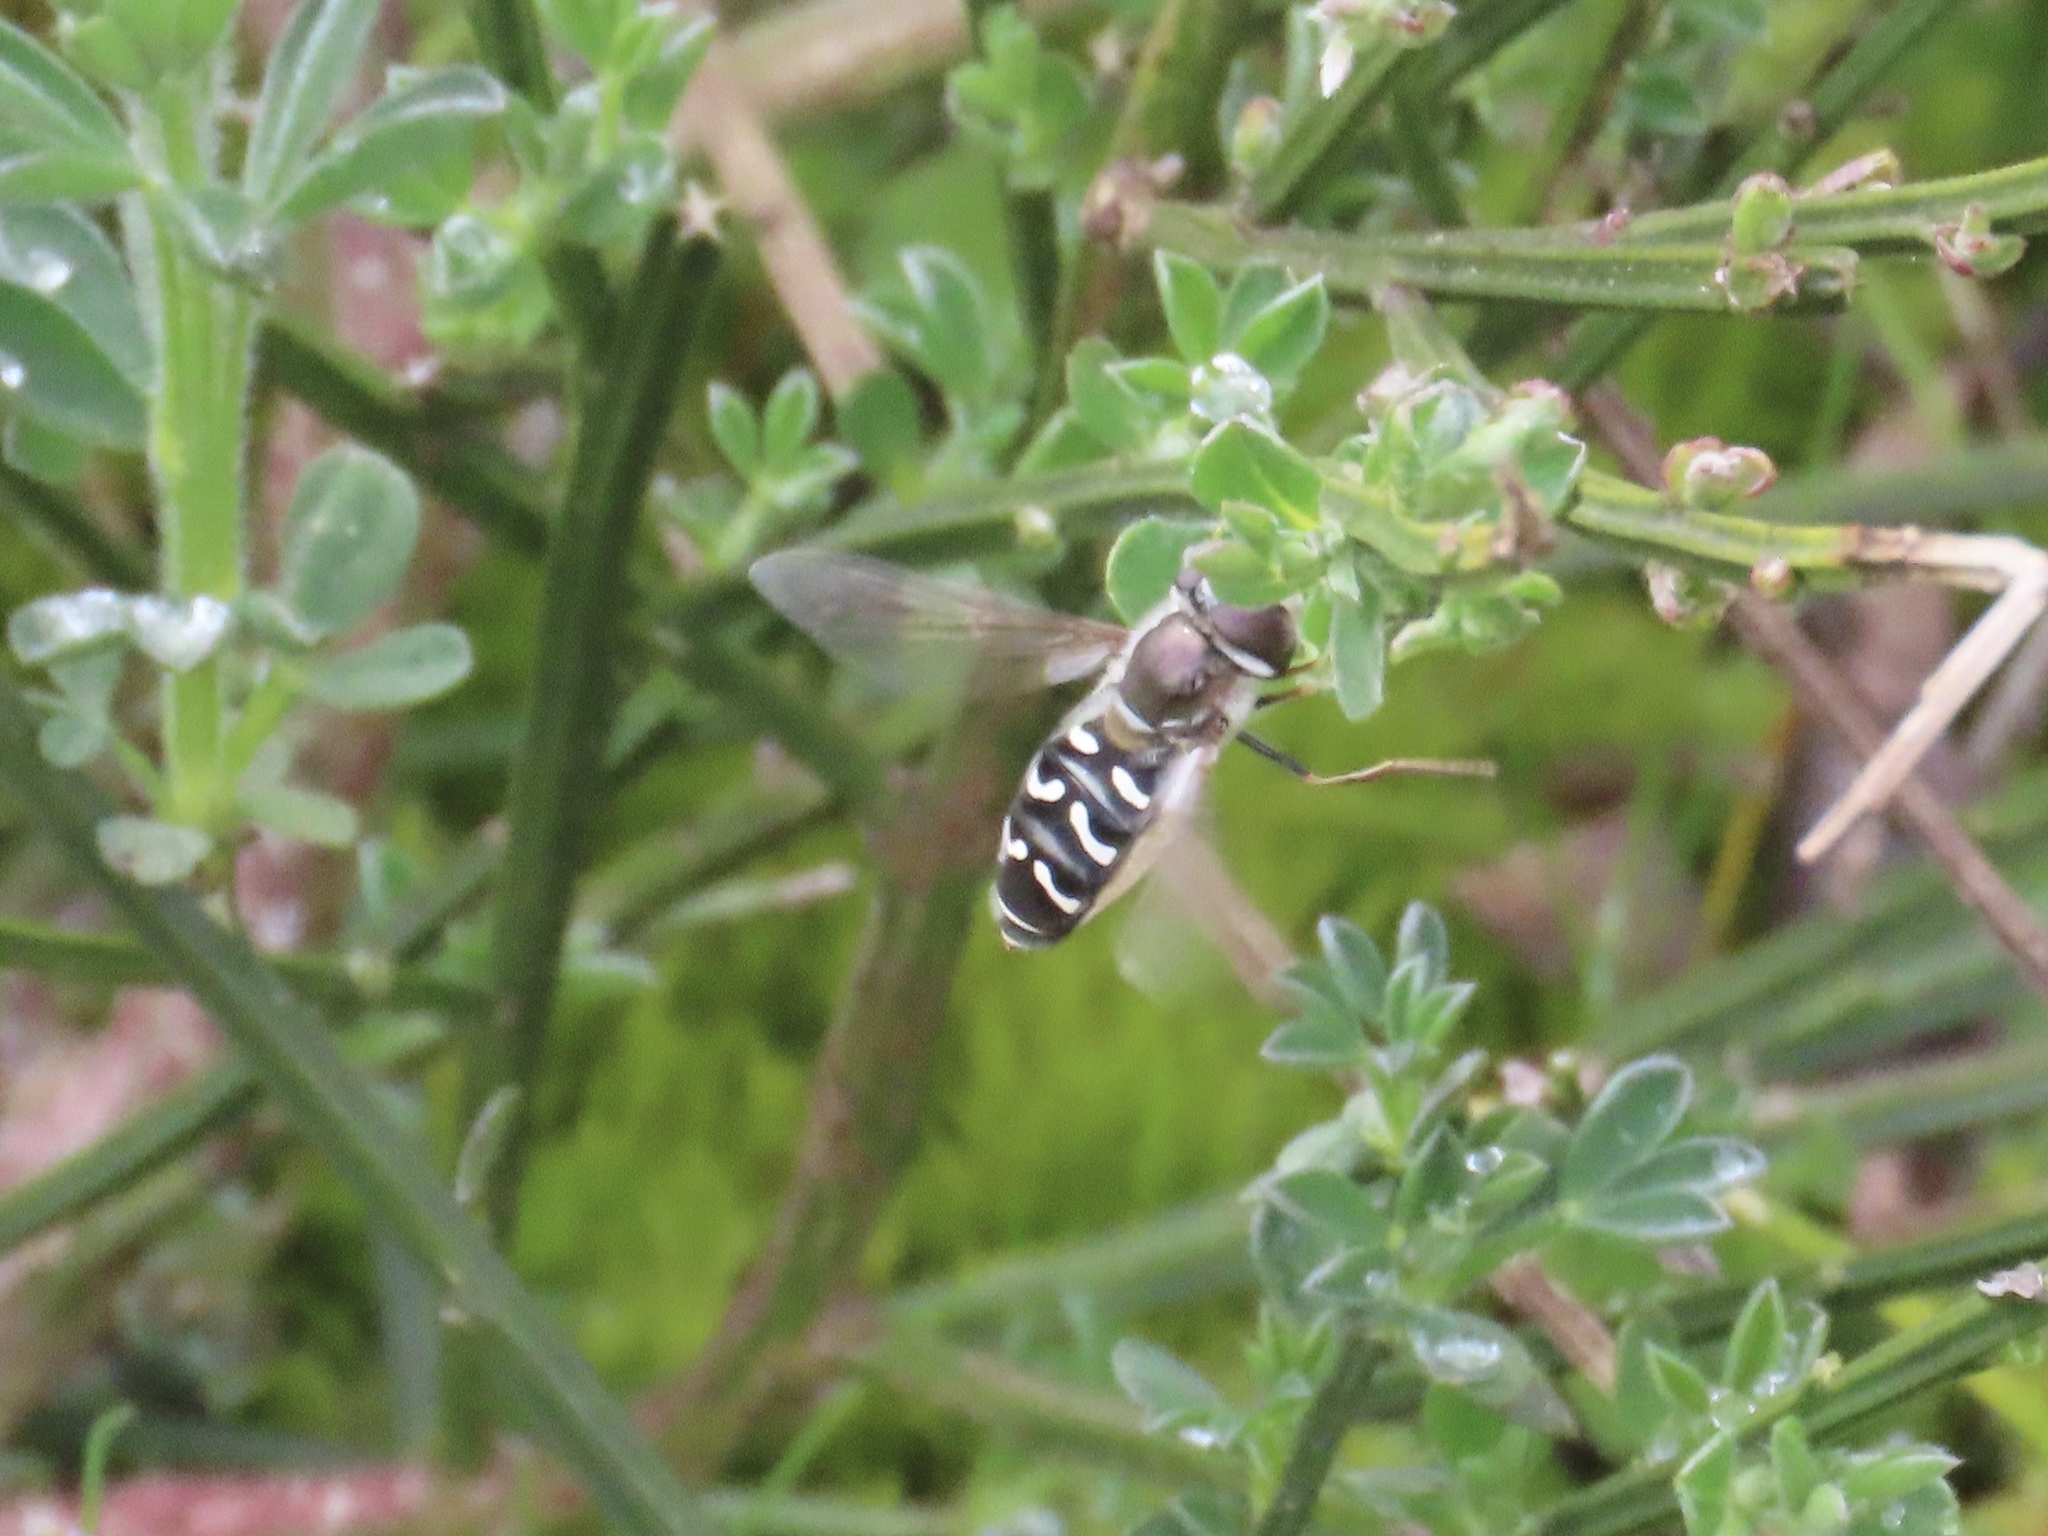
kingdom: Animalia
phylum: Arthropoda
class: Insecta
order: Diptera
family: Syrphidae
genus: Scaeva
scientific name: Scaeva affinis
